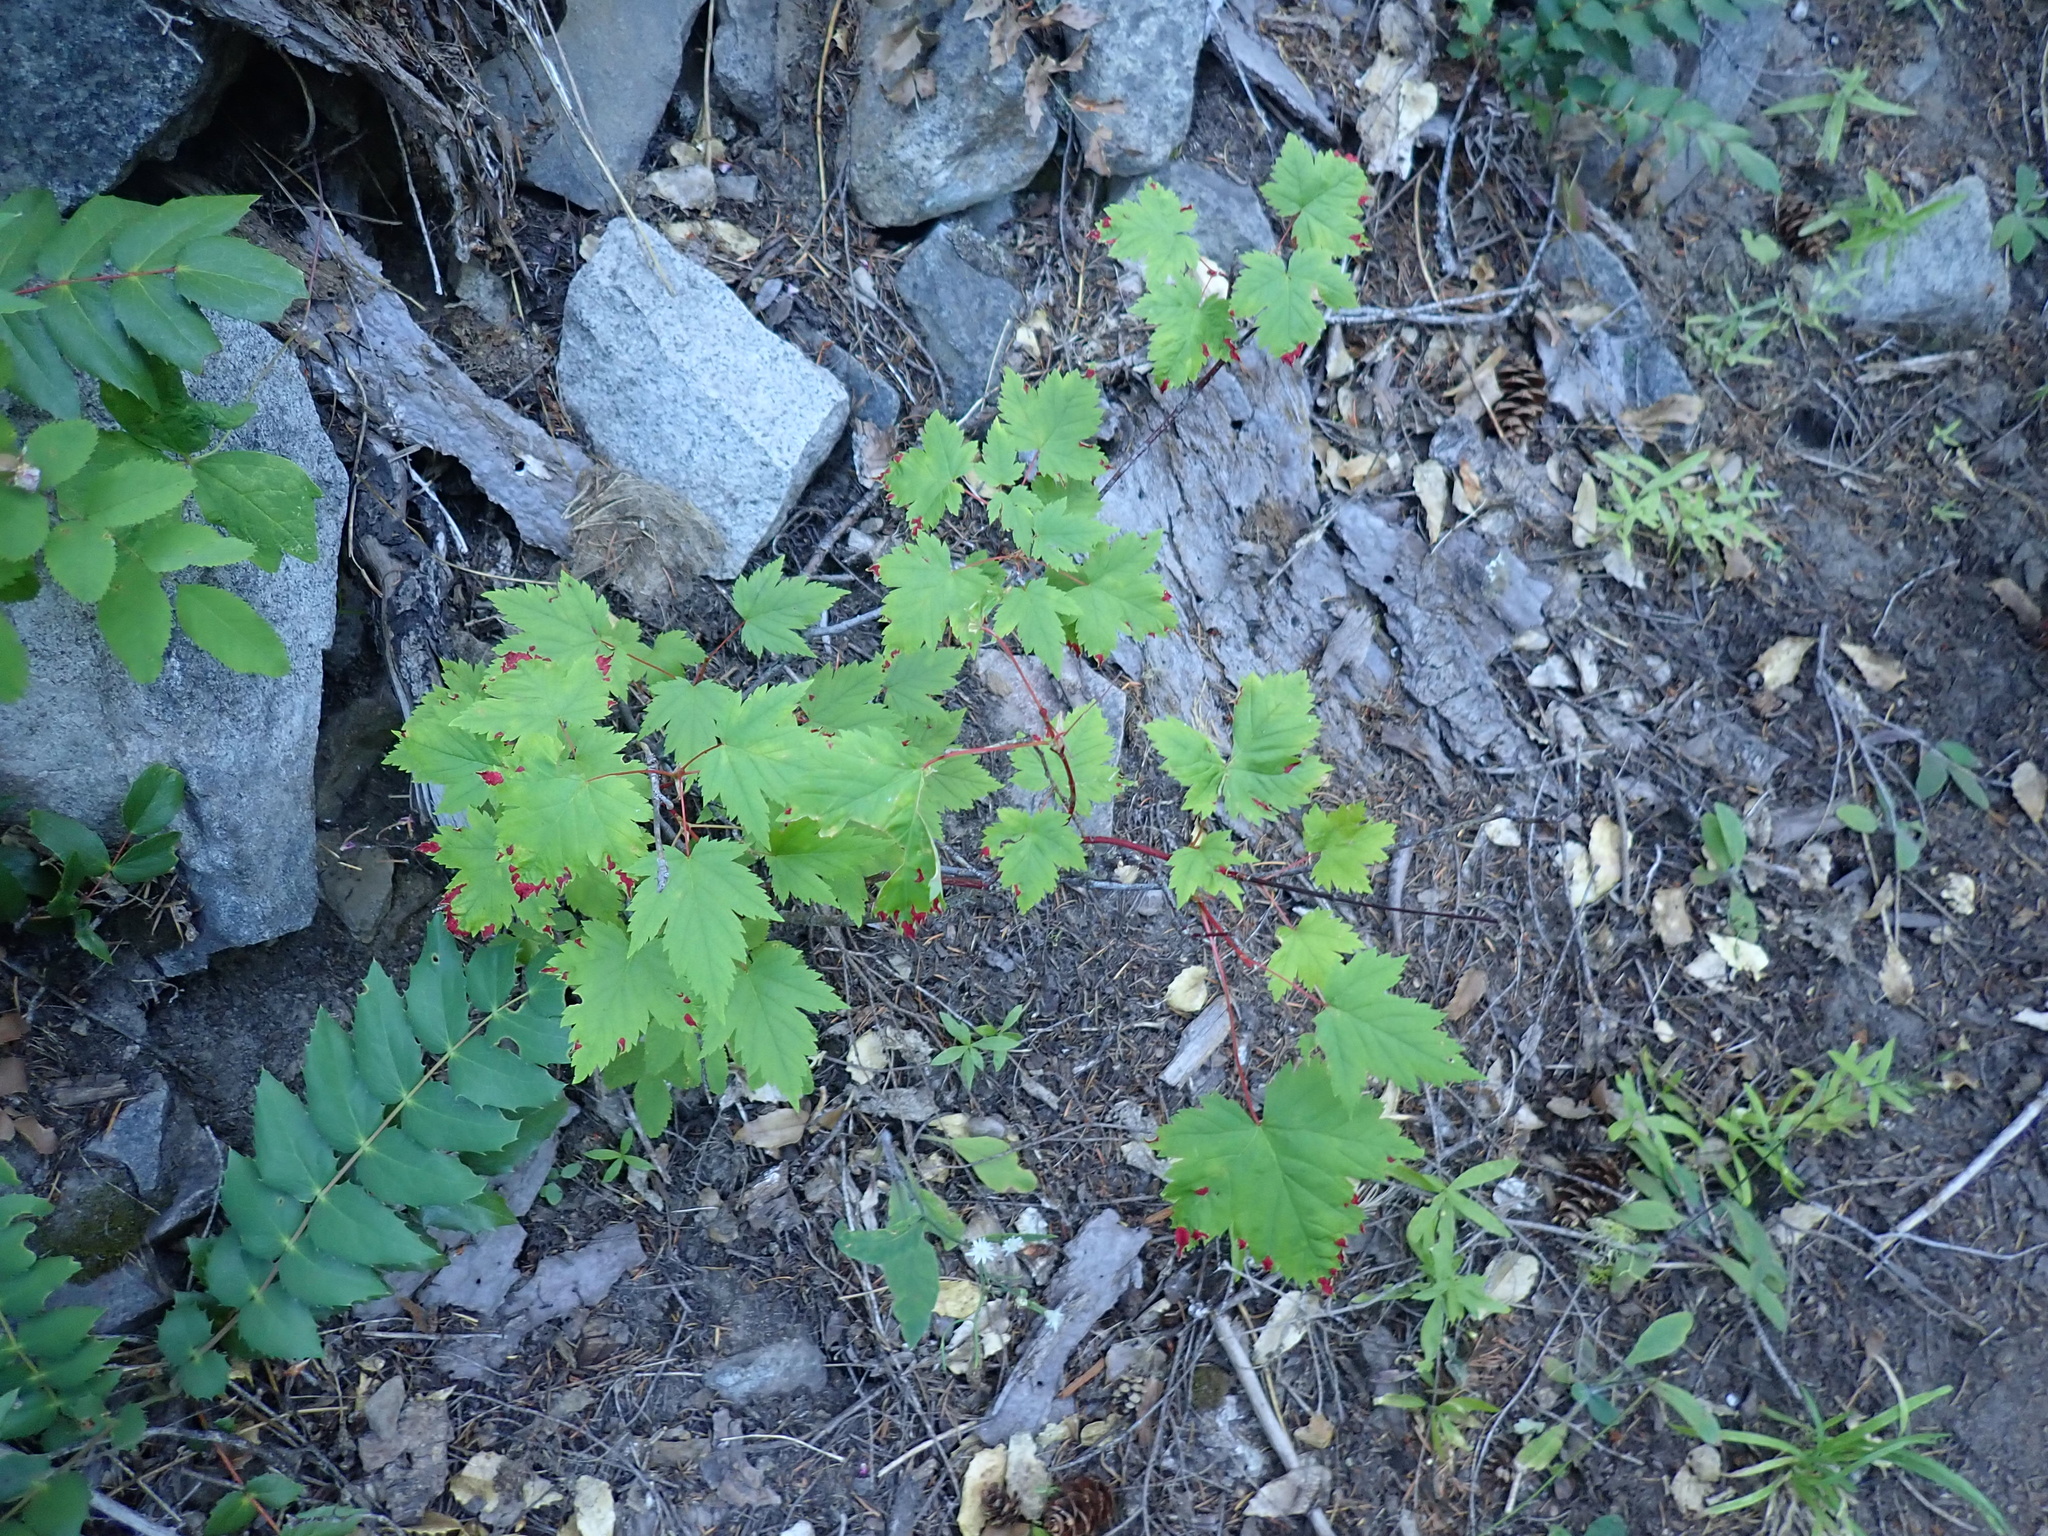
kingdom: Plantae
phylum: Tracheophyta
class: Magnoliopsida
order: Sapindales
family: Sapindaceae
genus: Acer
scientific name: Acer glabrum
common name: Rocky mountain maple
